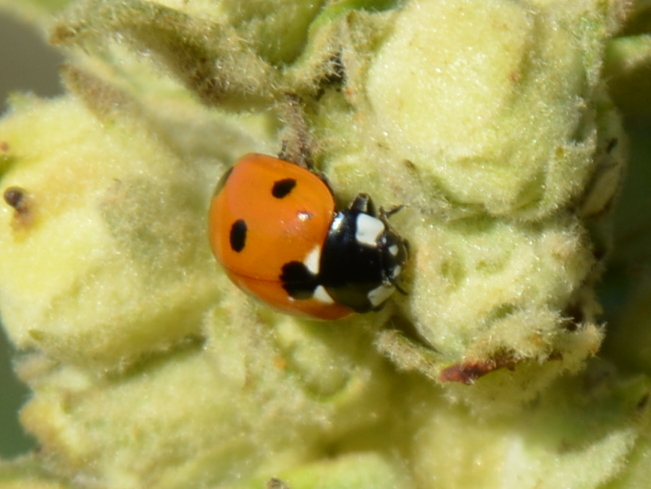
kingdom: Animalia
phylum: Arthropoda
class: Insecta
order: Coleoptera
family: Coccinellidae
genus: Coccinella
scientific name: Coccinella septempunctata
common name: Sevenspotted lady beetle
